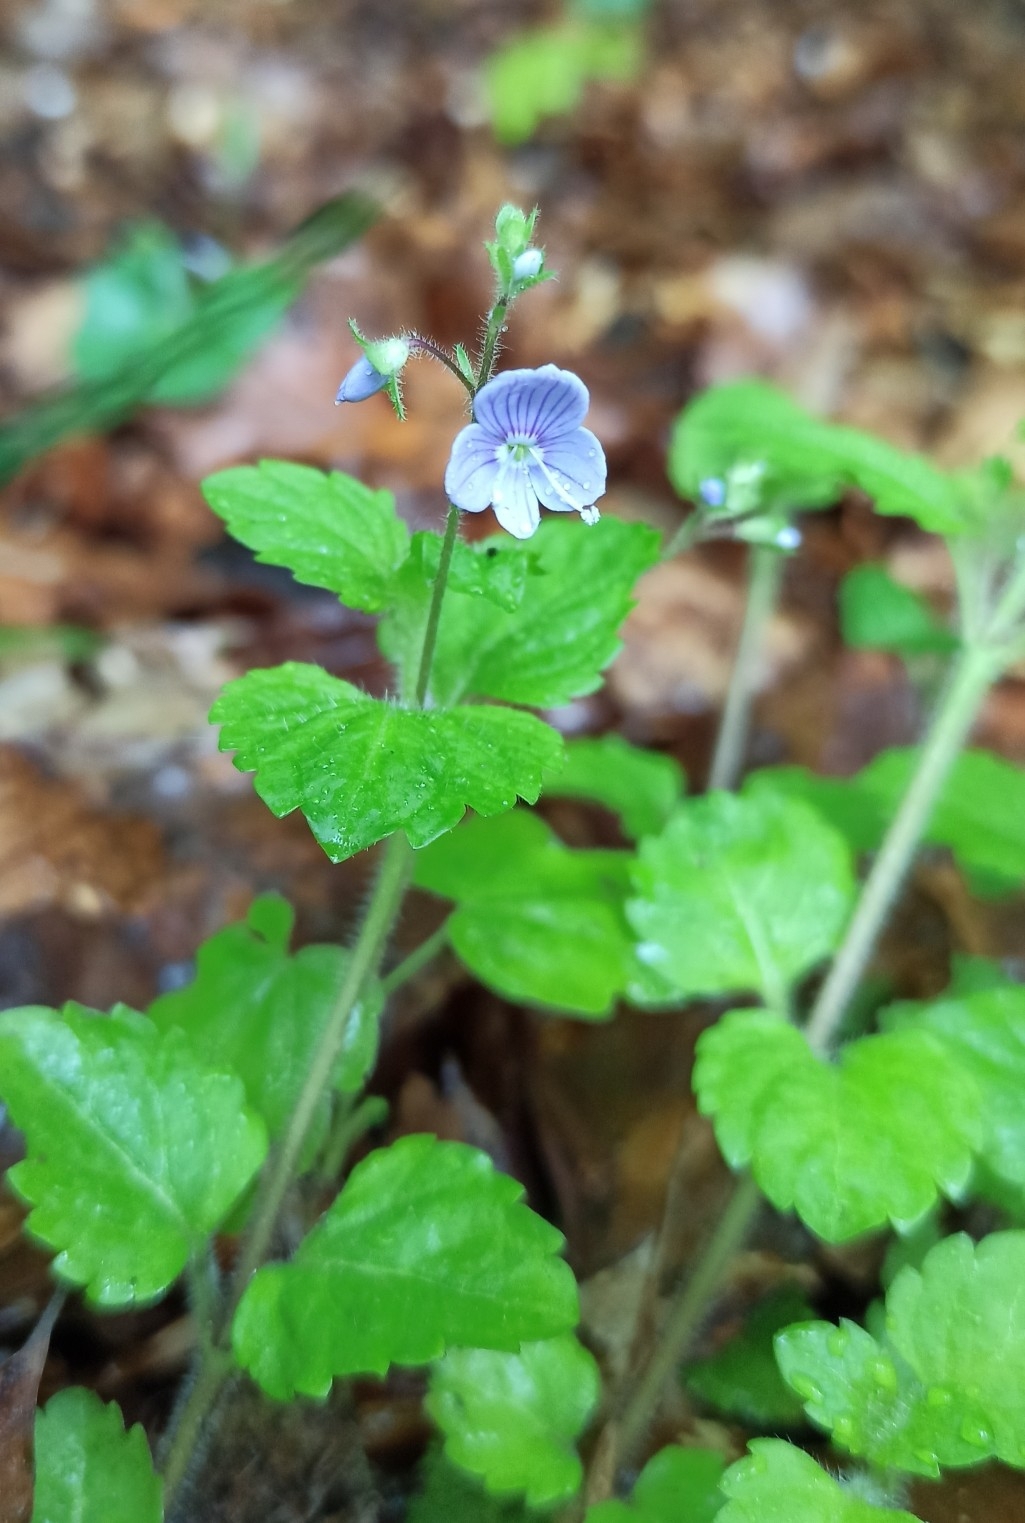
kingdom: Plantae
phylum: Tracheophyta
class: Magnoliopsida
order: Lamiales
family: Plantaginaceae
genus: Veronica
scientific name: Veronica montana
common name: Wood speedwell
